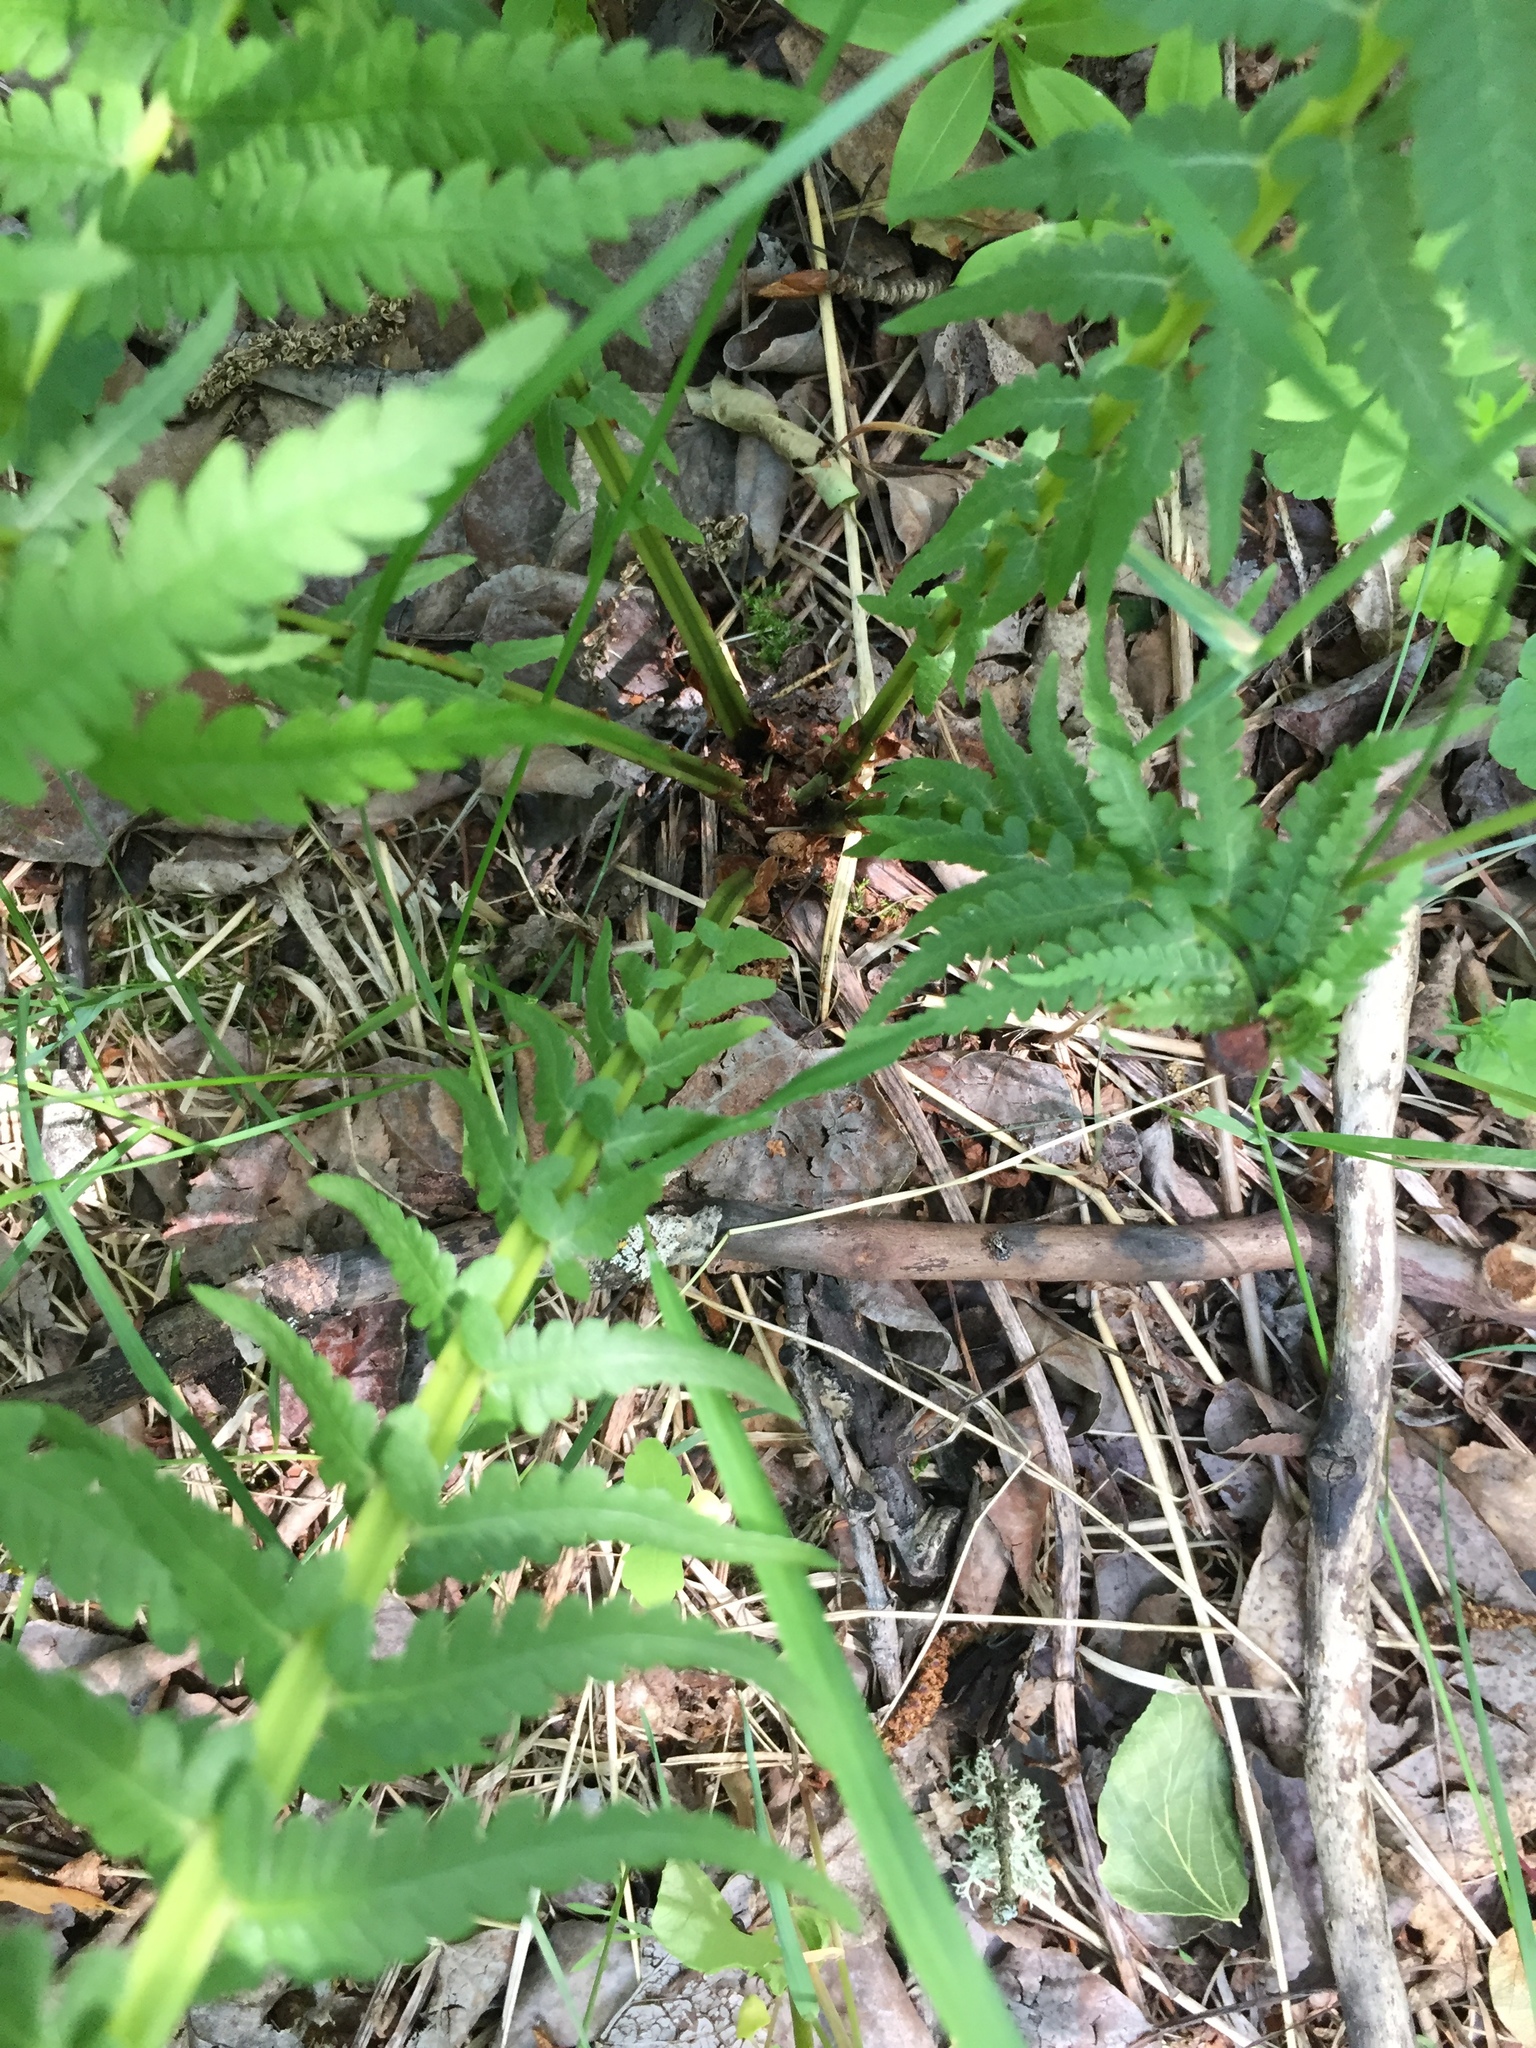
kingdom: Plantae
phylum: Tracheophyta
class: Polypodiopsida
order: Polypodiales
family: Onocleaceae
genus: Matteuccia
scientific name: Matteuccia struthiopteris
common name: Ostrich fern
